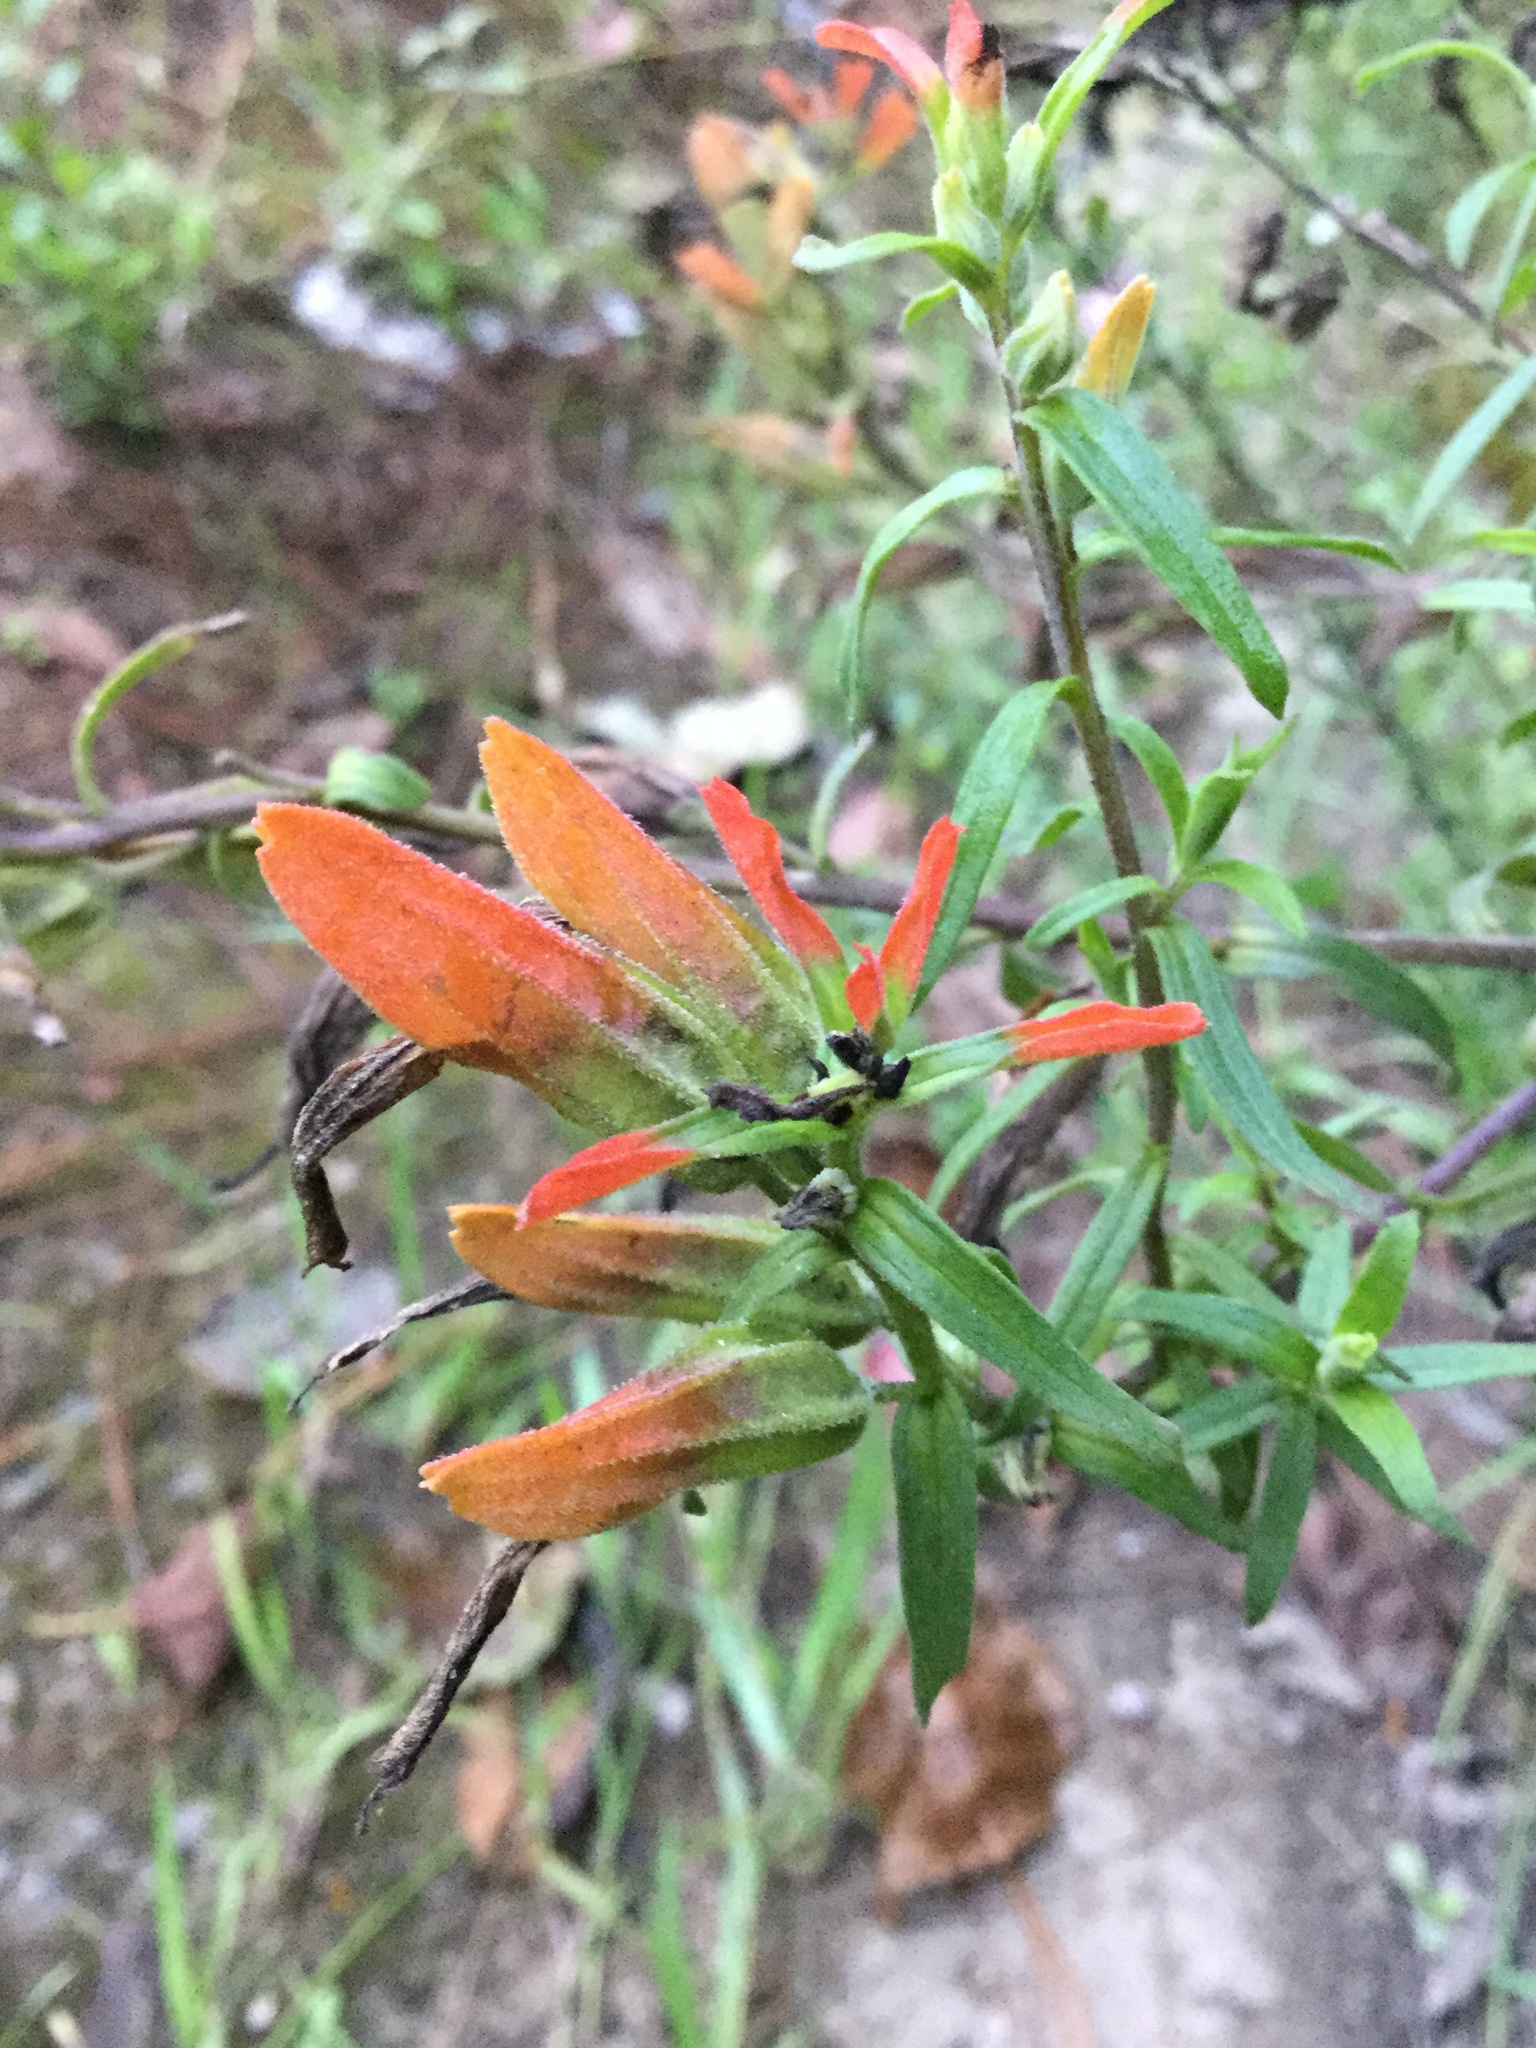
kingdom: Plantae
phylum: Tracheophyta
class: Magnoliopsida
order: Lamiales
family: Orobanchaceae
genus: Castilleja
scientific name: Castilleja integrifolia
